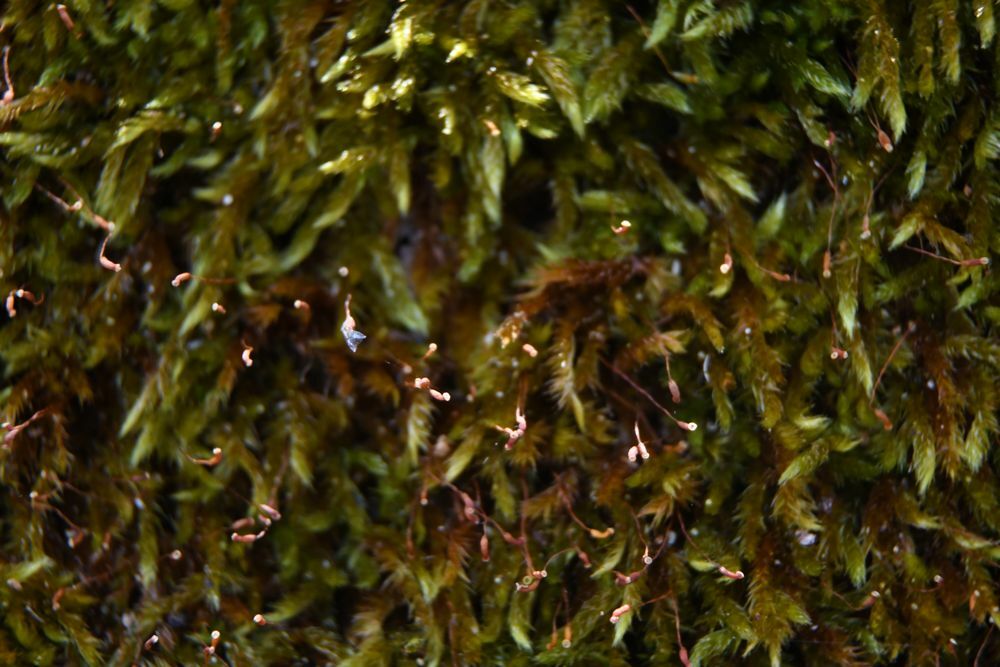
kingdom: Plantae
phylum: Bryophyta
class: Bryopsida
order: Hypnales
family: Sematophyllaceae
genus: Sematophyllum
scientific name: Sematophyllum homomallum
